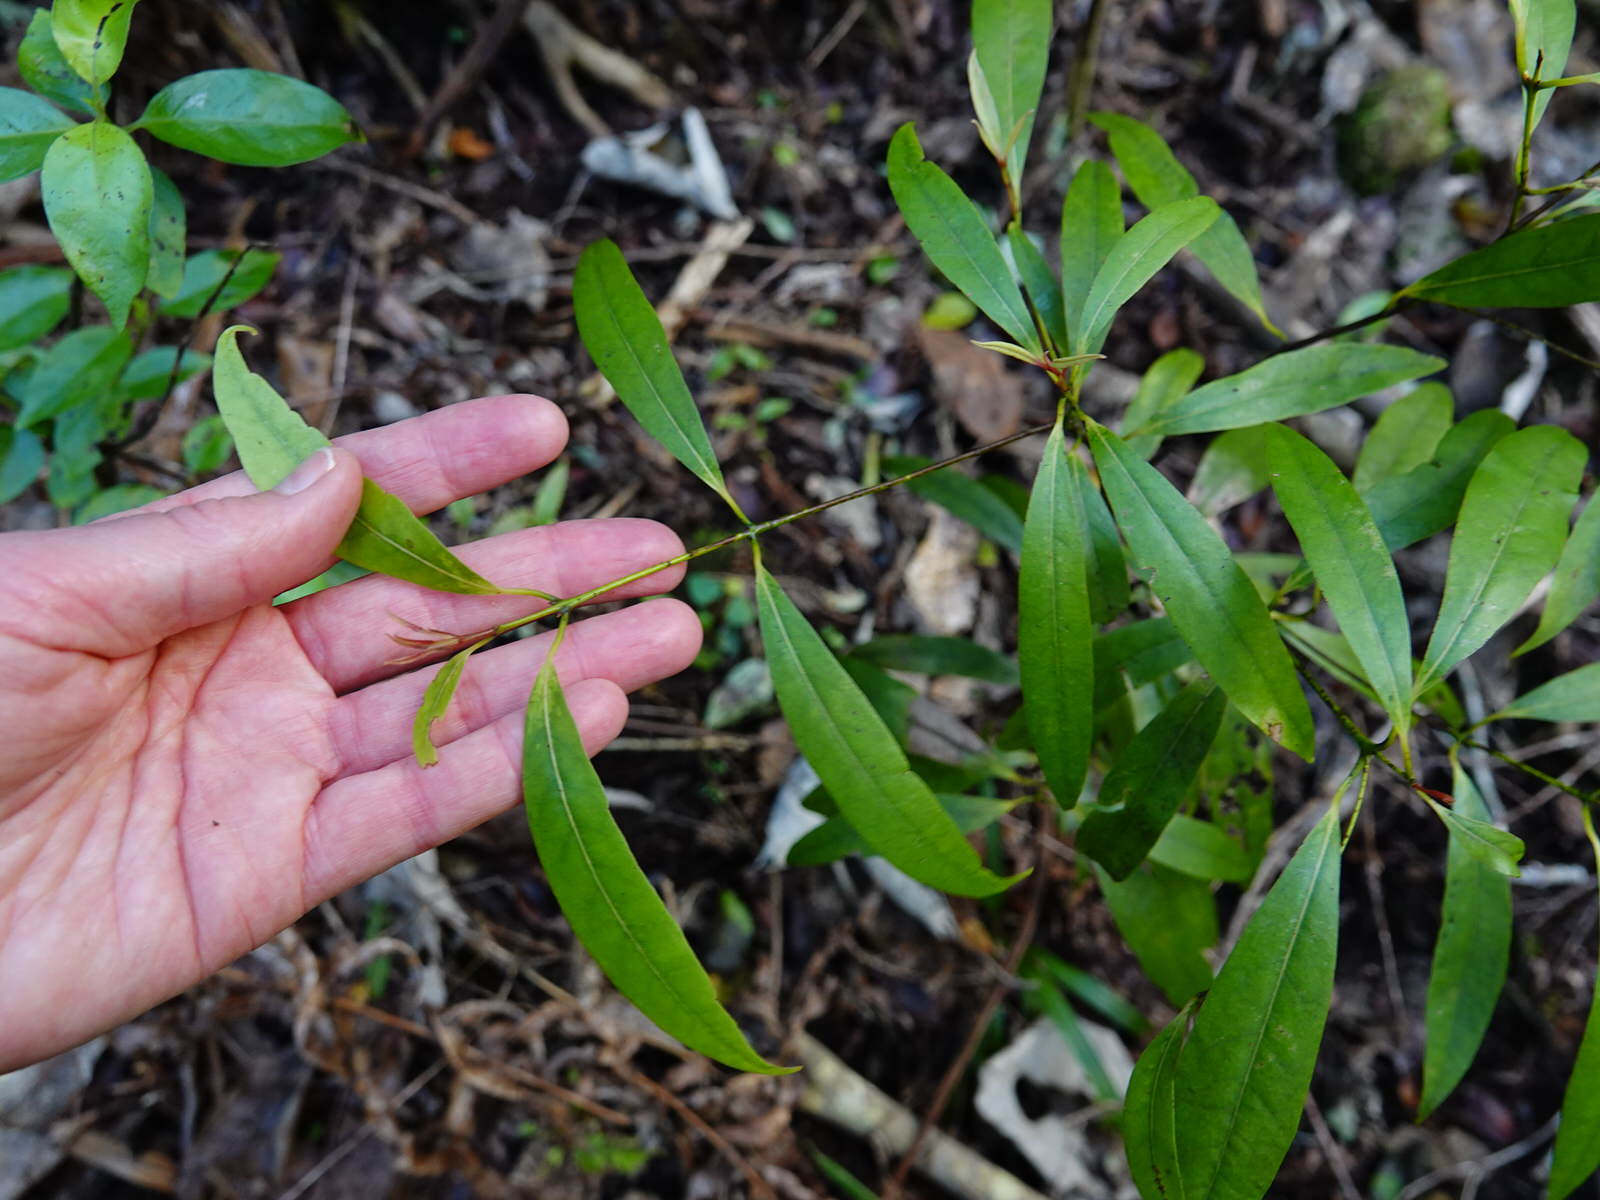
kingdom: Plantae
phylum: Tracheophyta
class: Magnoliopsida
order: Laurales
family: Lauraceae
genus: Beilschmiedia
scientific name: Beilschmiedia tawa
